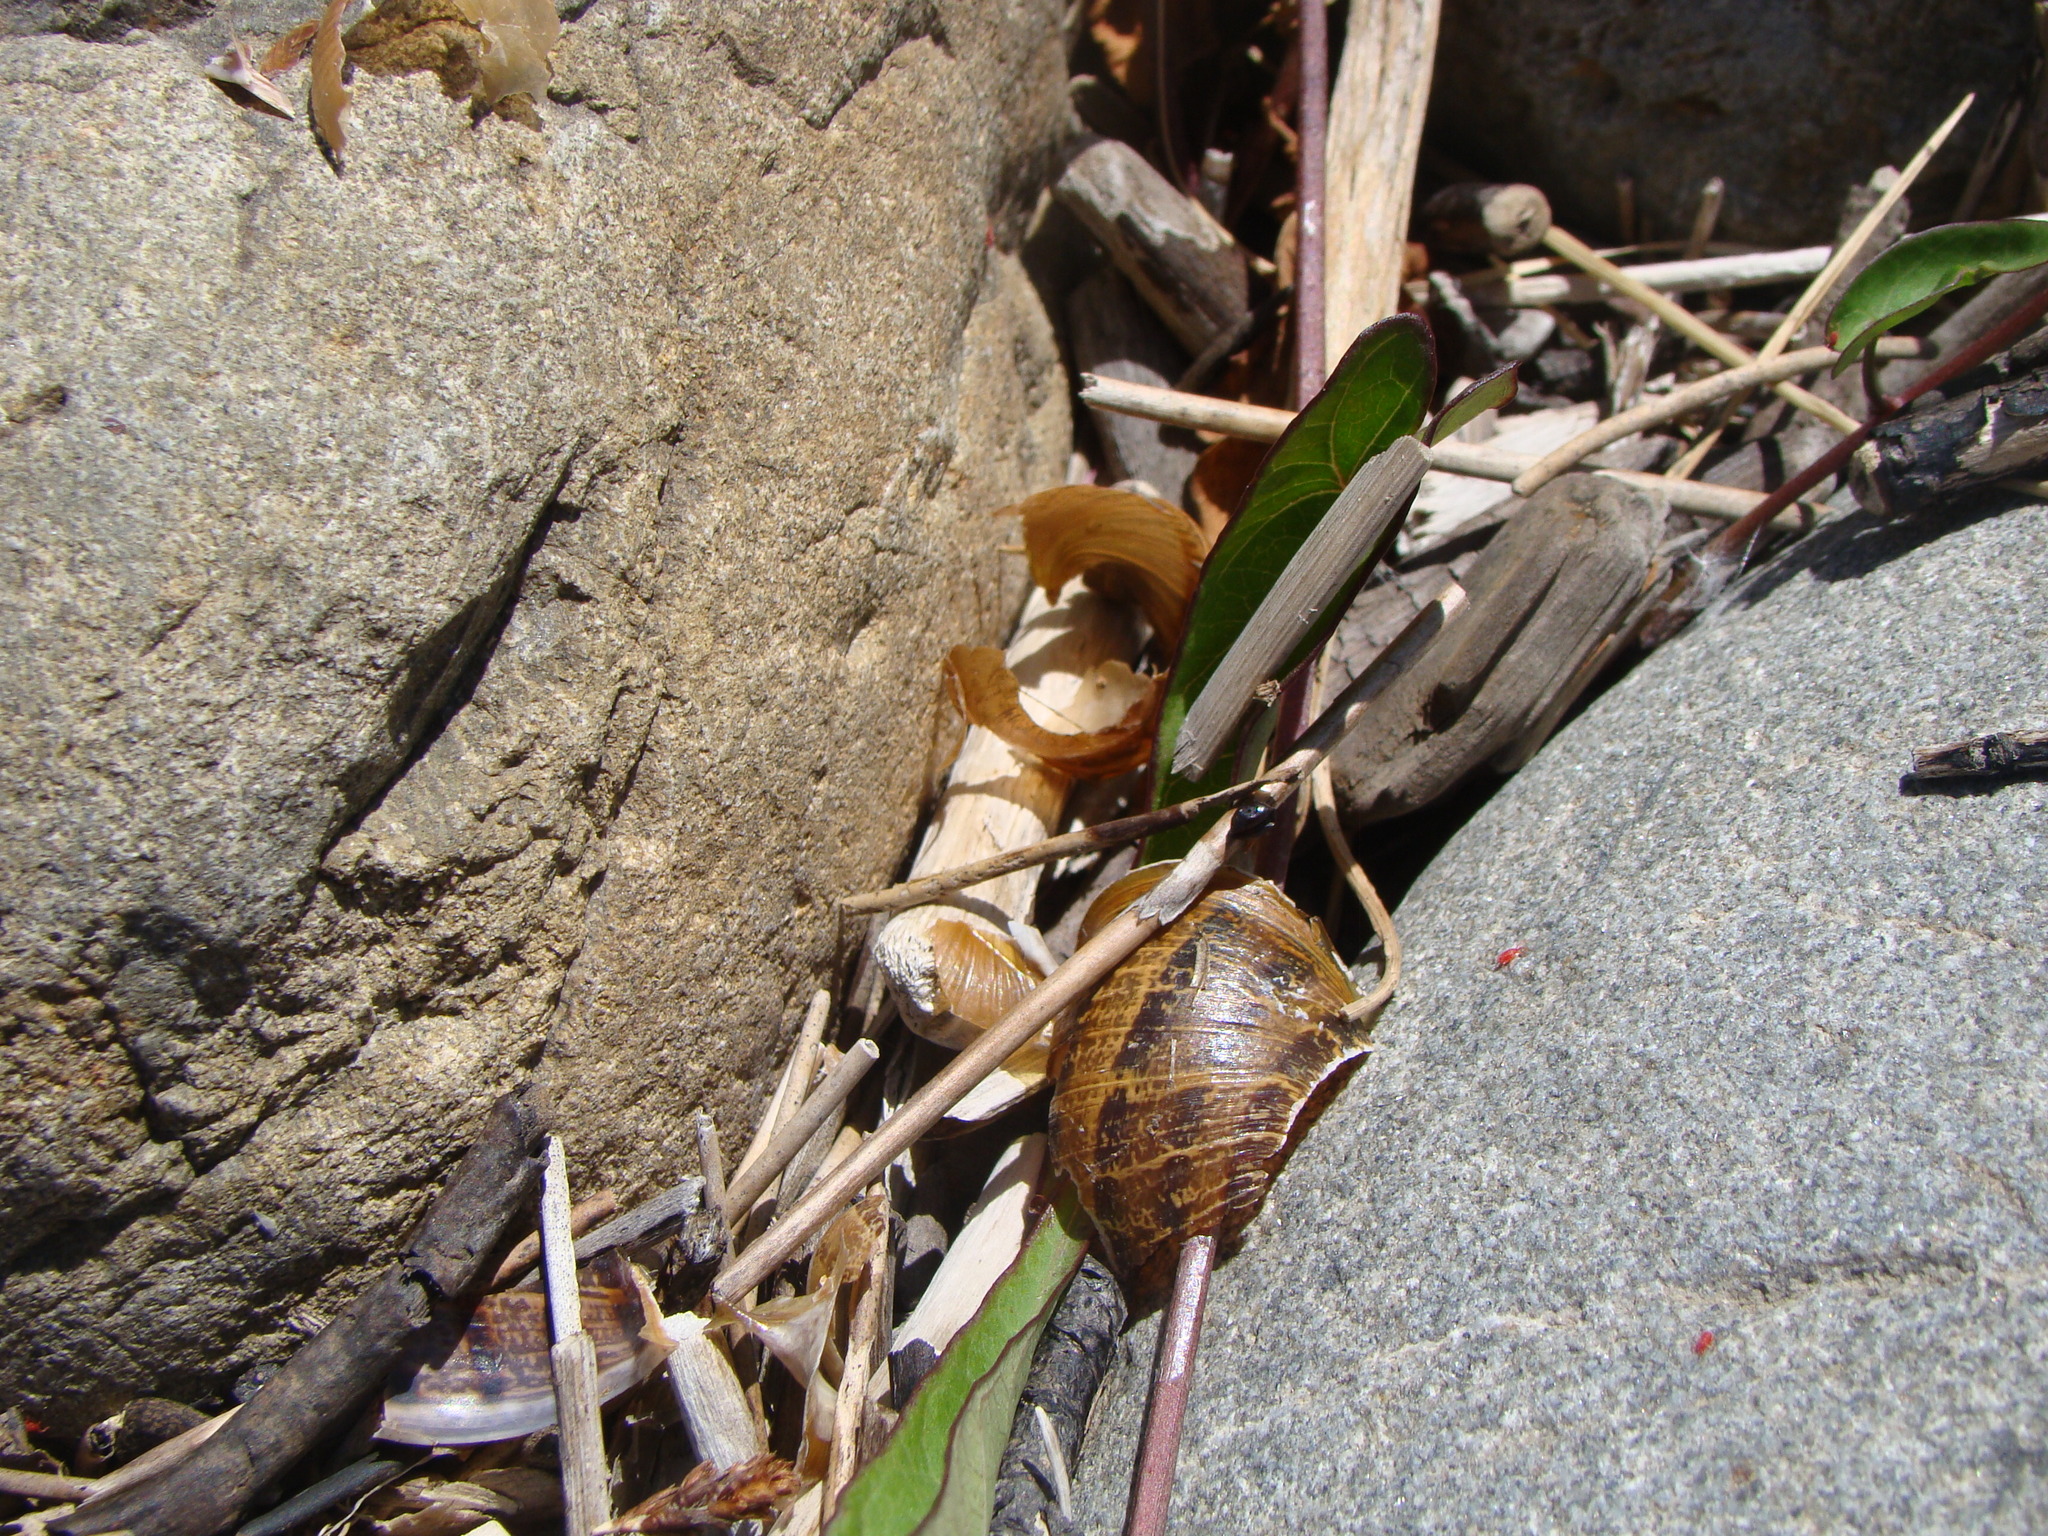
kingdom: Animalia
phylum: Mollusca
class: Gastropoda
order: Stylommatophora
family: Helicidae
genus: Cornu
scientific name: Cornu aspersum
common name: Brown garden snail
